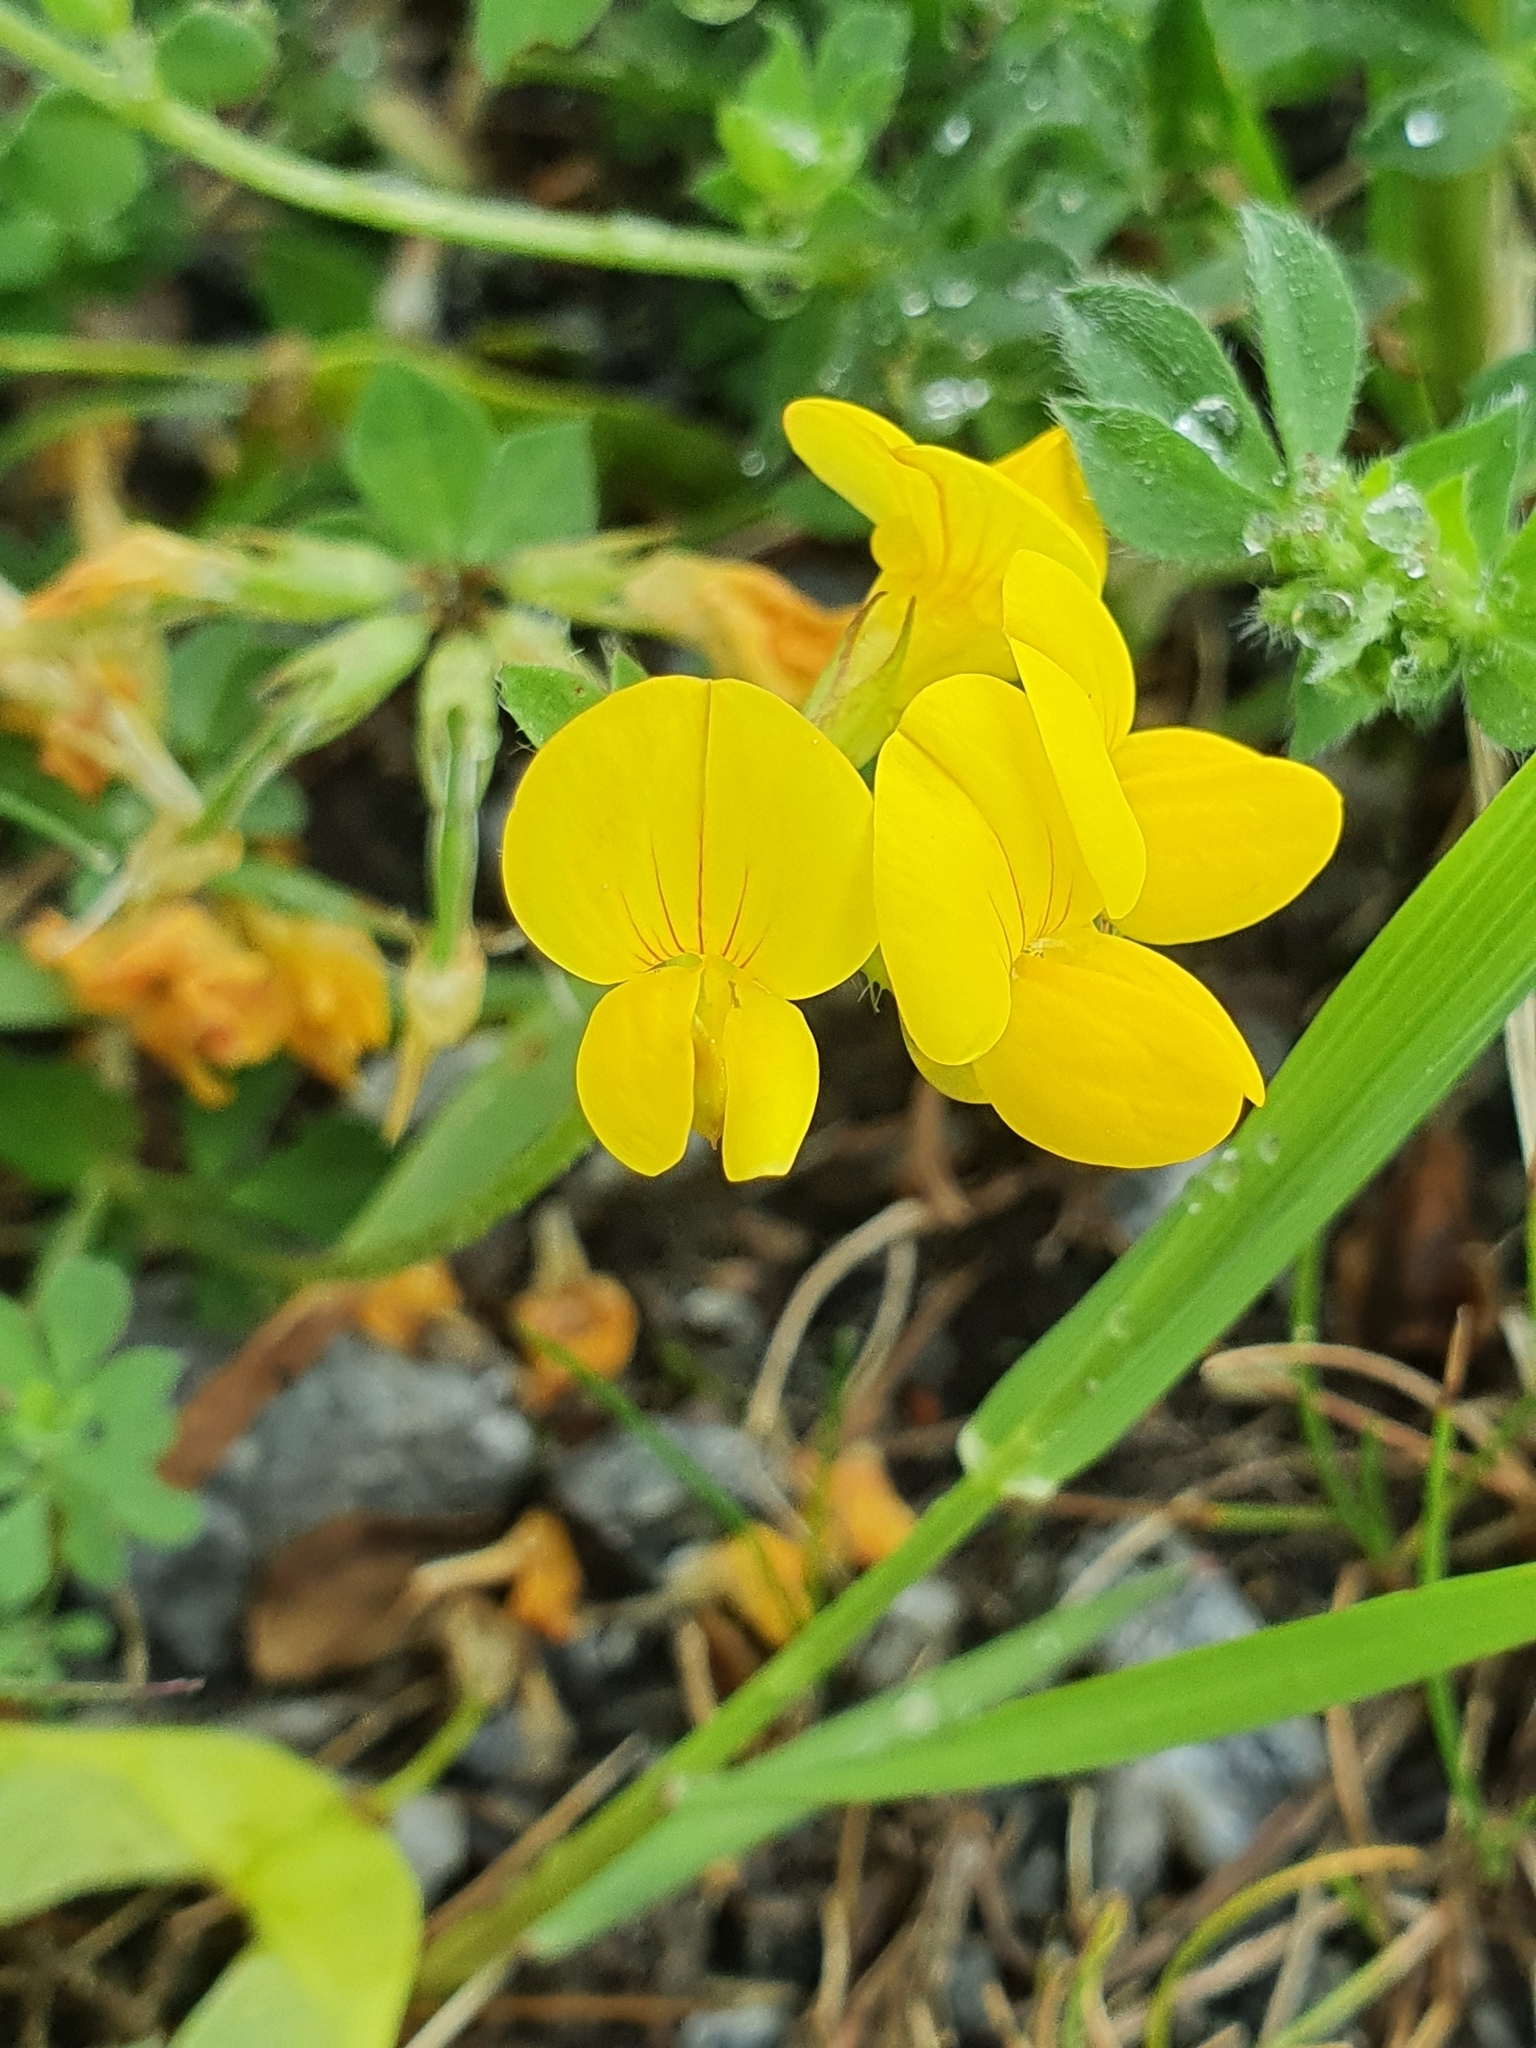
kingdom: Plantae
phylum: Tracheophyta
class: Magnoliopsida
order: Fabales
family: Fabaceae
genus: Lotus
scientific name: Lotus corniculatus
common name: Common bird's-foot-trefoil
